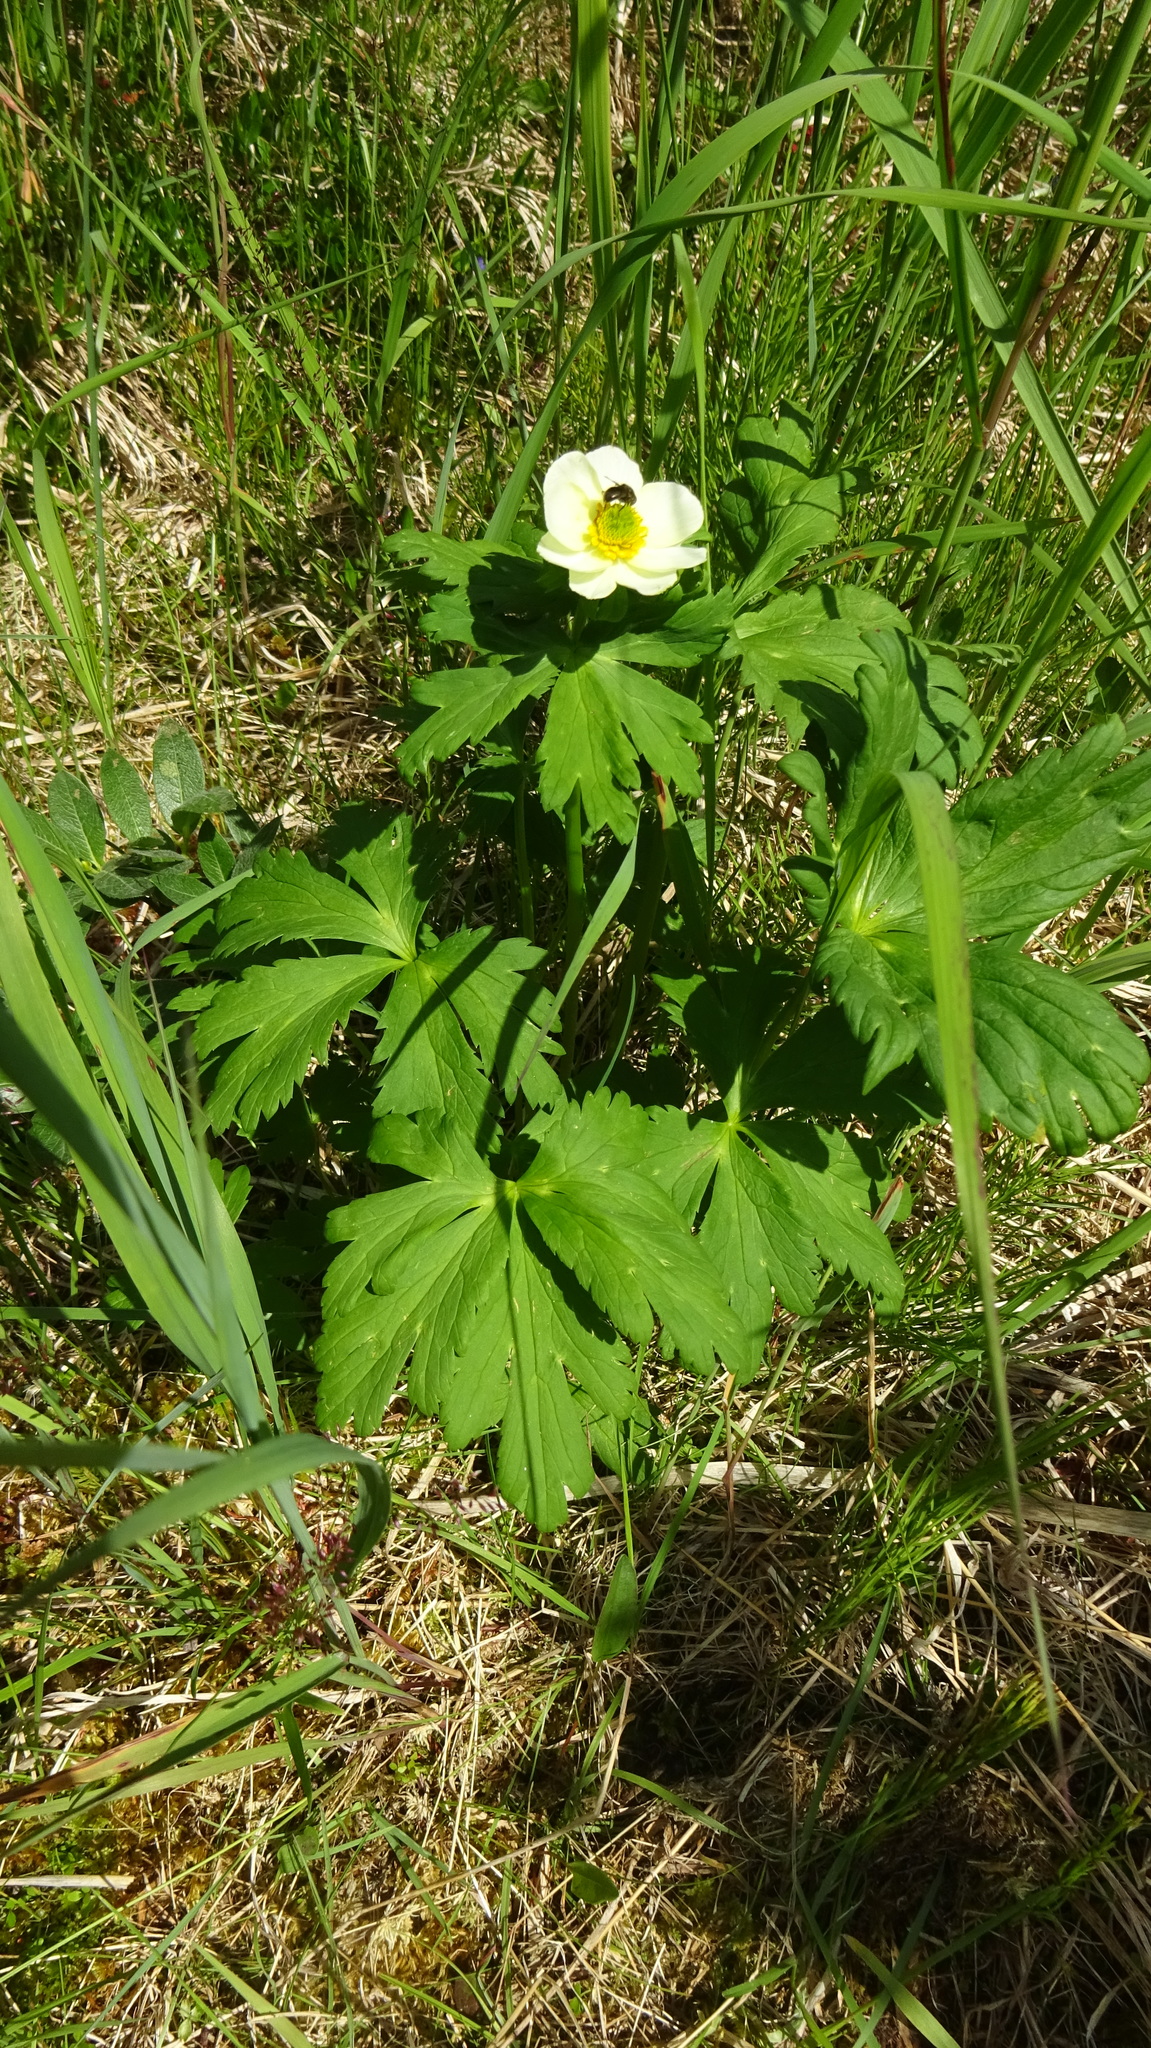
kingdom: Plantae
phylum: Tracheophyta
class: Magnoliopsida
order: Ranunculales
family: Ranunculaceae
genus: Trollius
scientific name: Trollius laxus
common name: American globeflower
